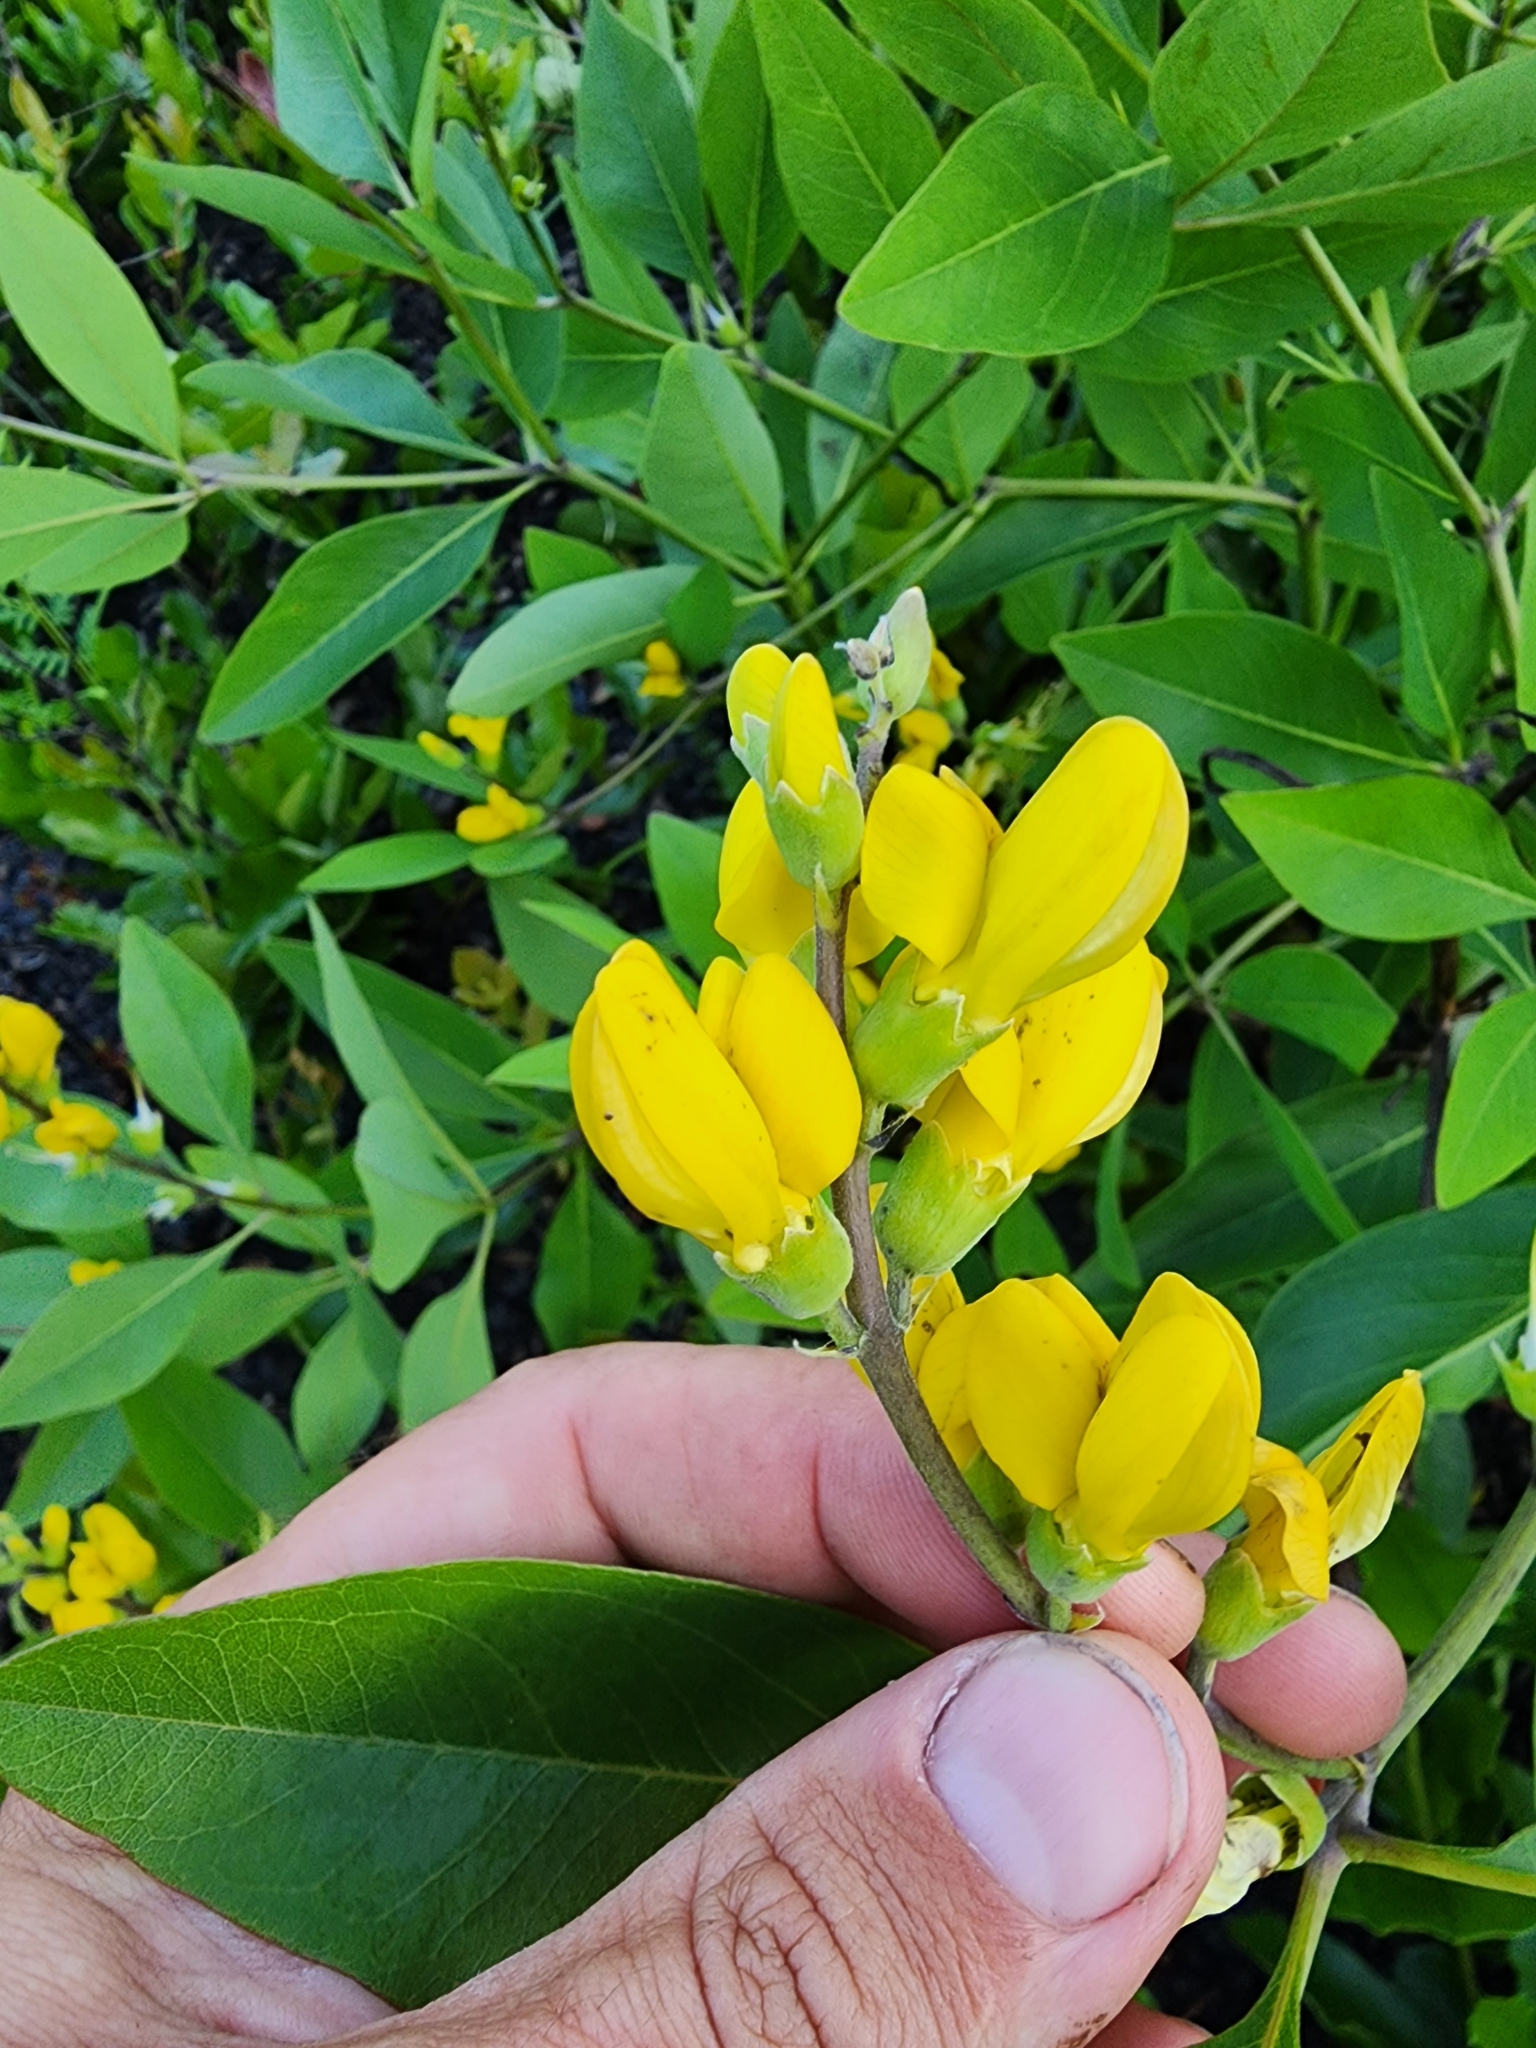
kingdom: Plantae
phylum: Tracheophyta
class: Magnoliopsida
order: Fabales
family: Fabaceae
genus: Baptisia
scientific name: Baptisia lanceolata
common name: Gopherweed
